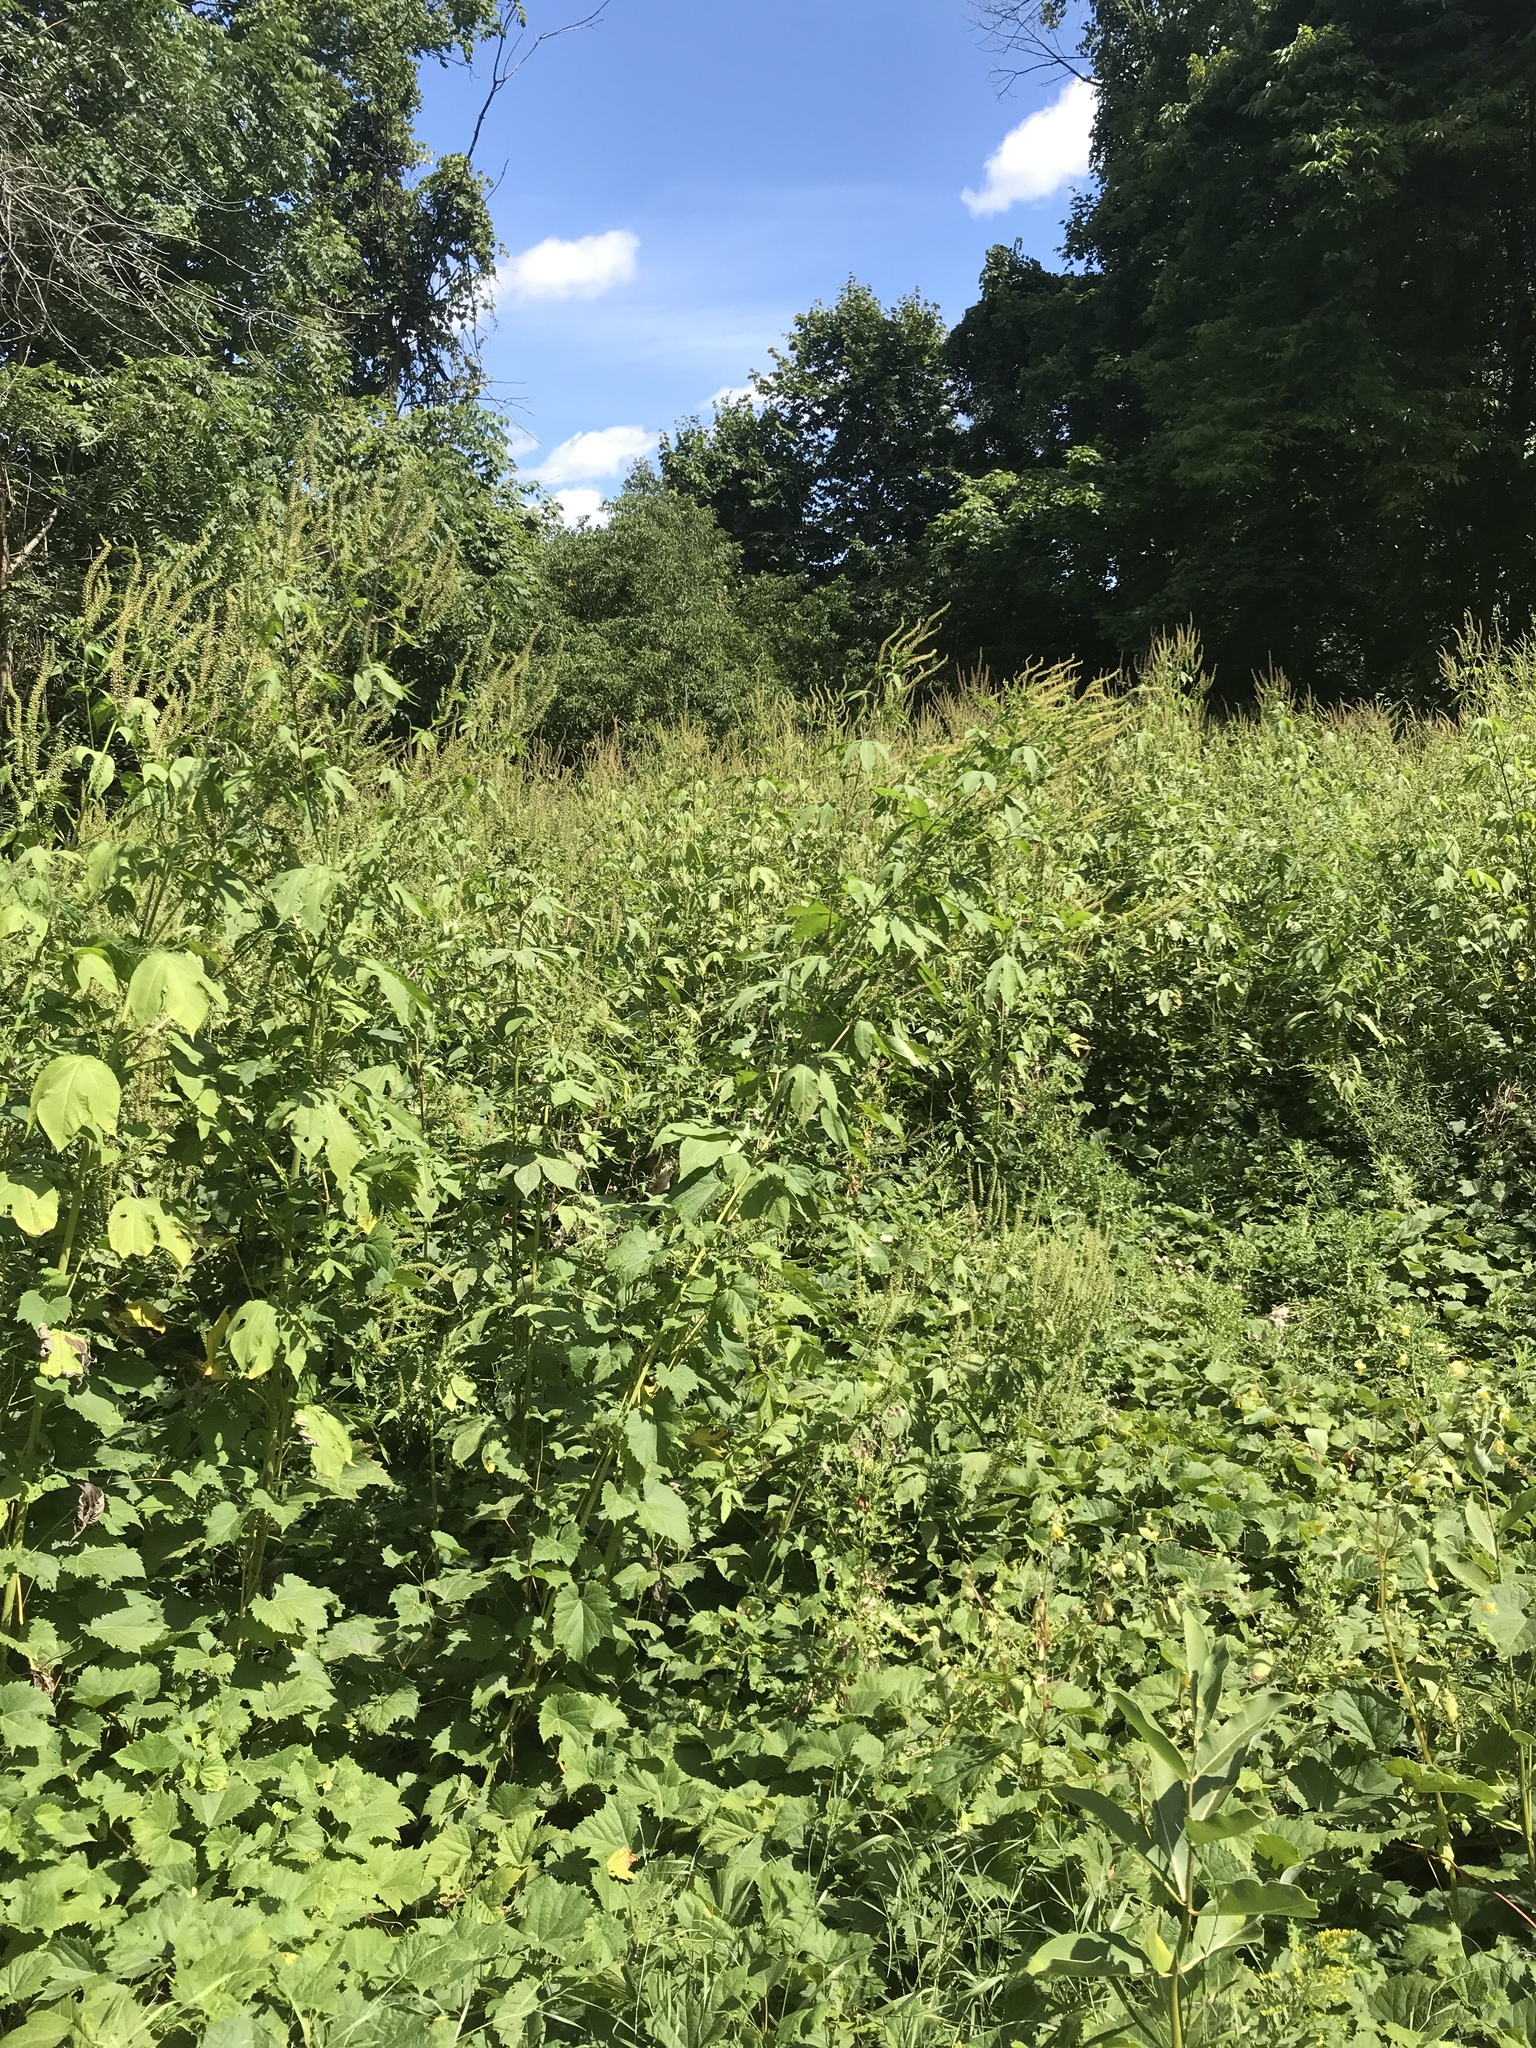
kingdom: Plantae
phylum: Tracheophyta
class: Magnoliopsida
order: Asterales
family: Asteraceae
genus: Ambrosia
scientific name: Ambrosia trifida
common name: Giant ragweed
